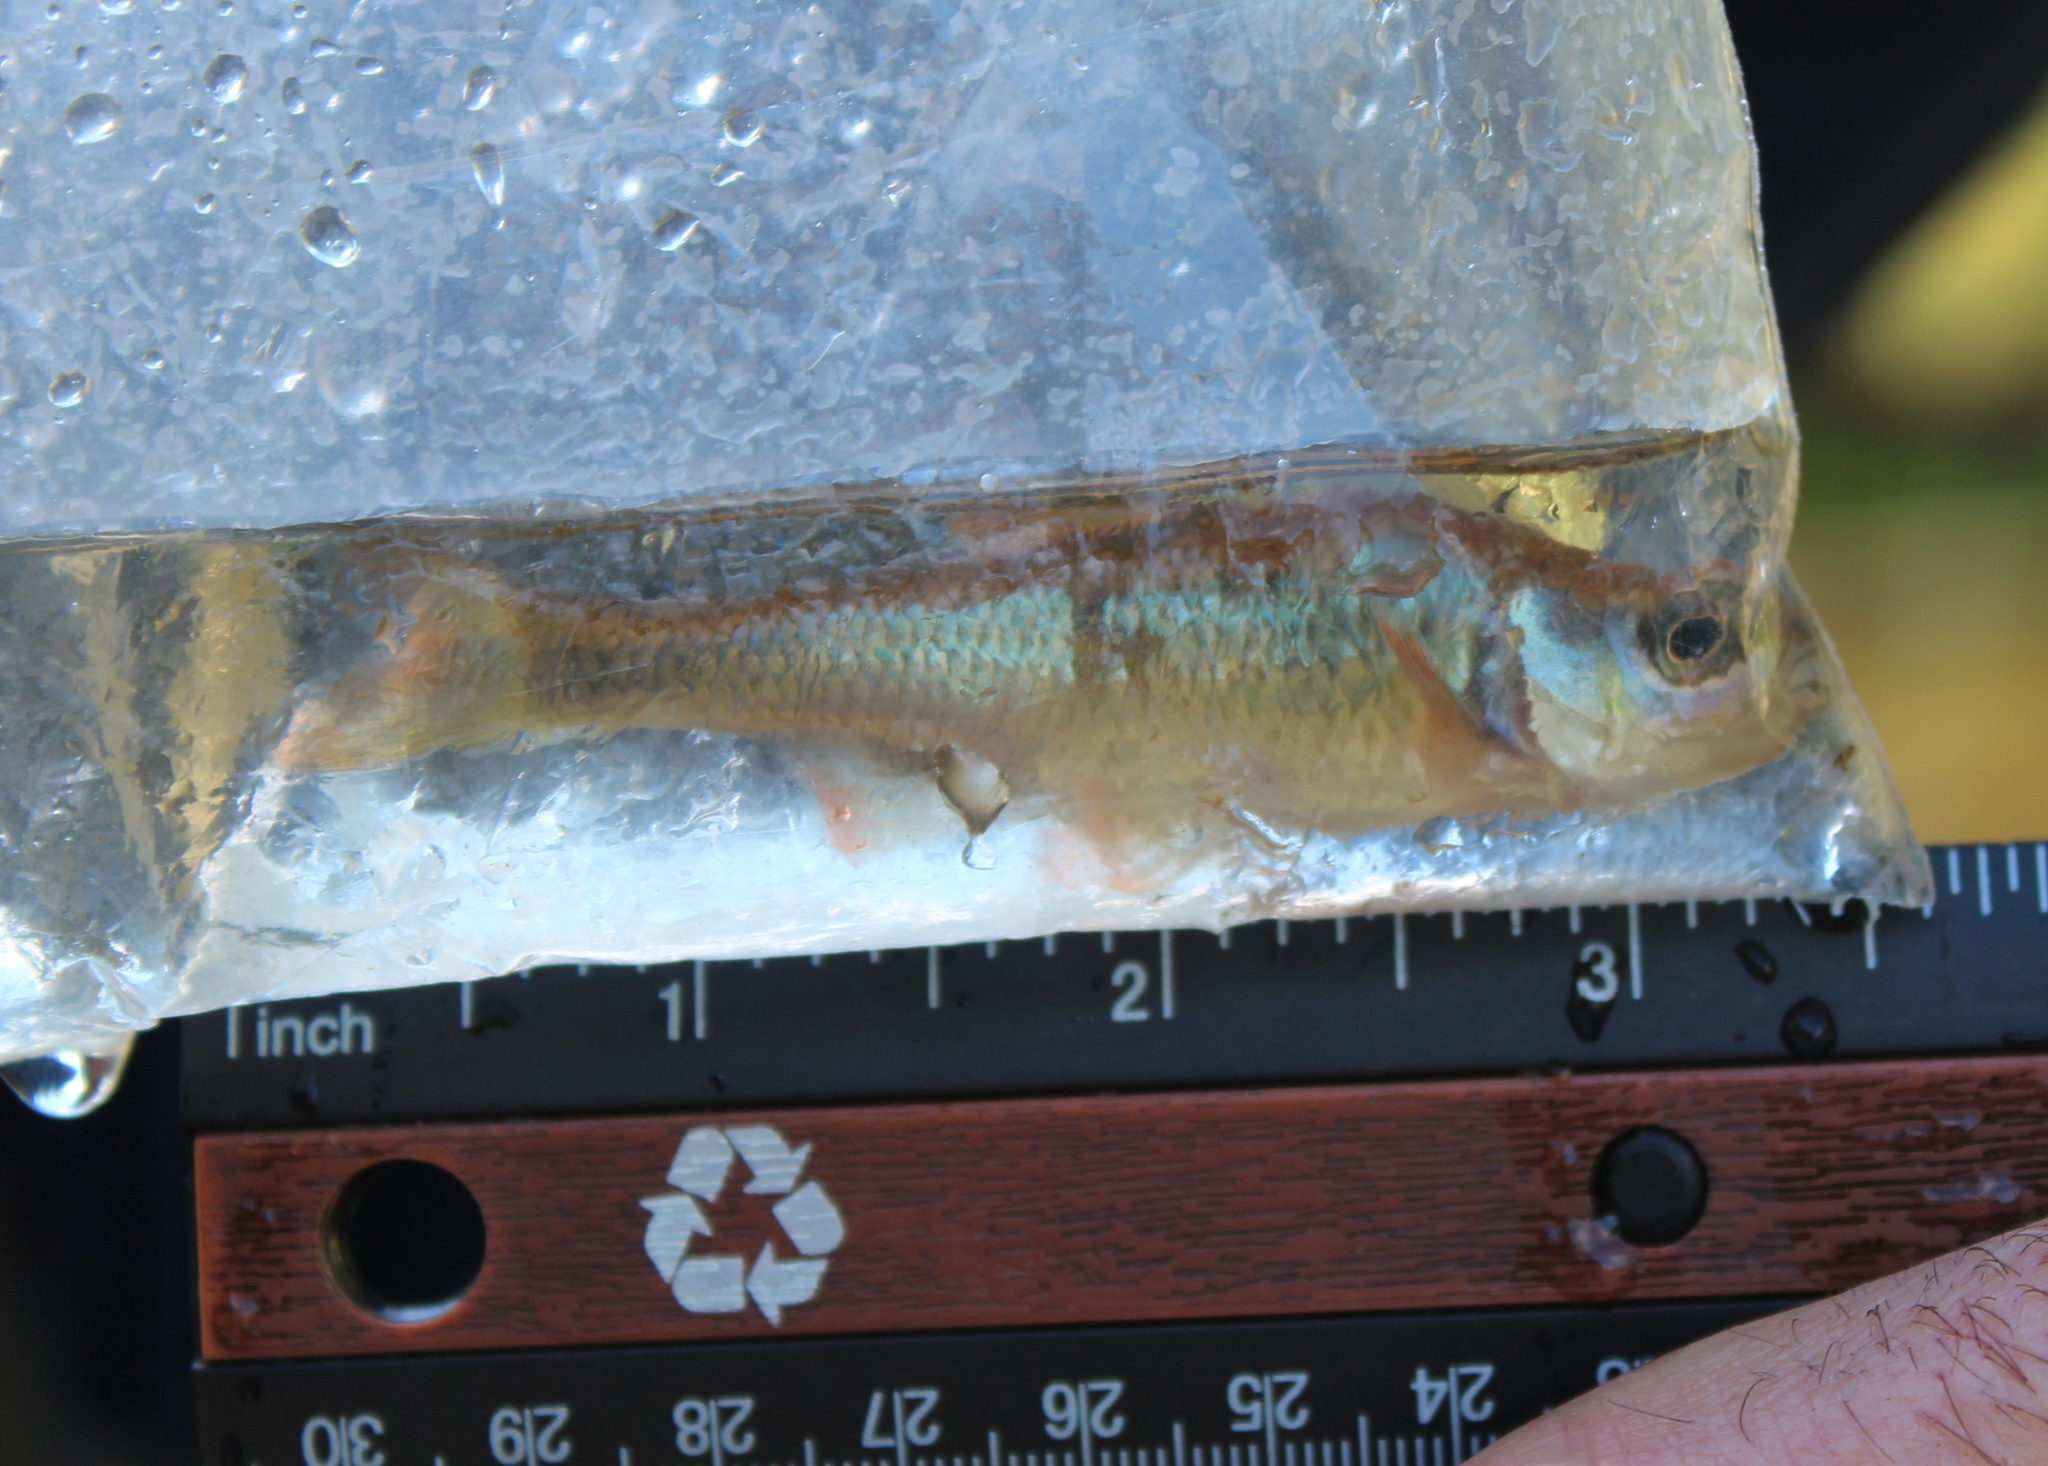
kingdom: Animalia
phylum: Chordata
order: Cypriniformes
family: Cyprinidae
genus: Luxilus
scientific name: Luxilus cornutus
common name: Common shiner
